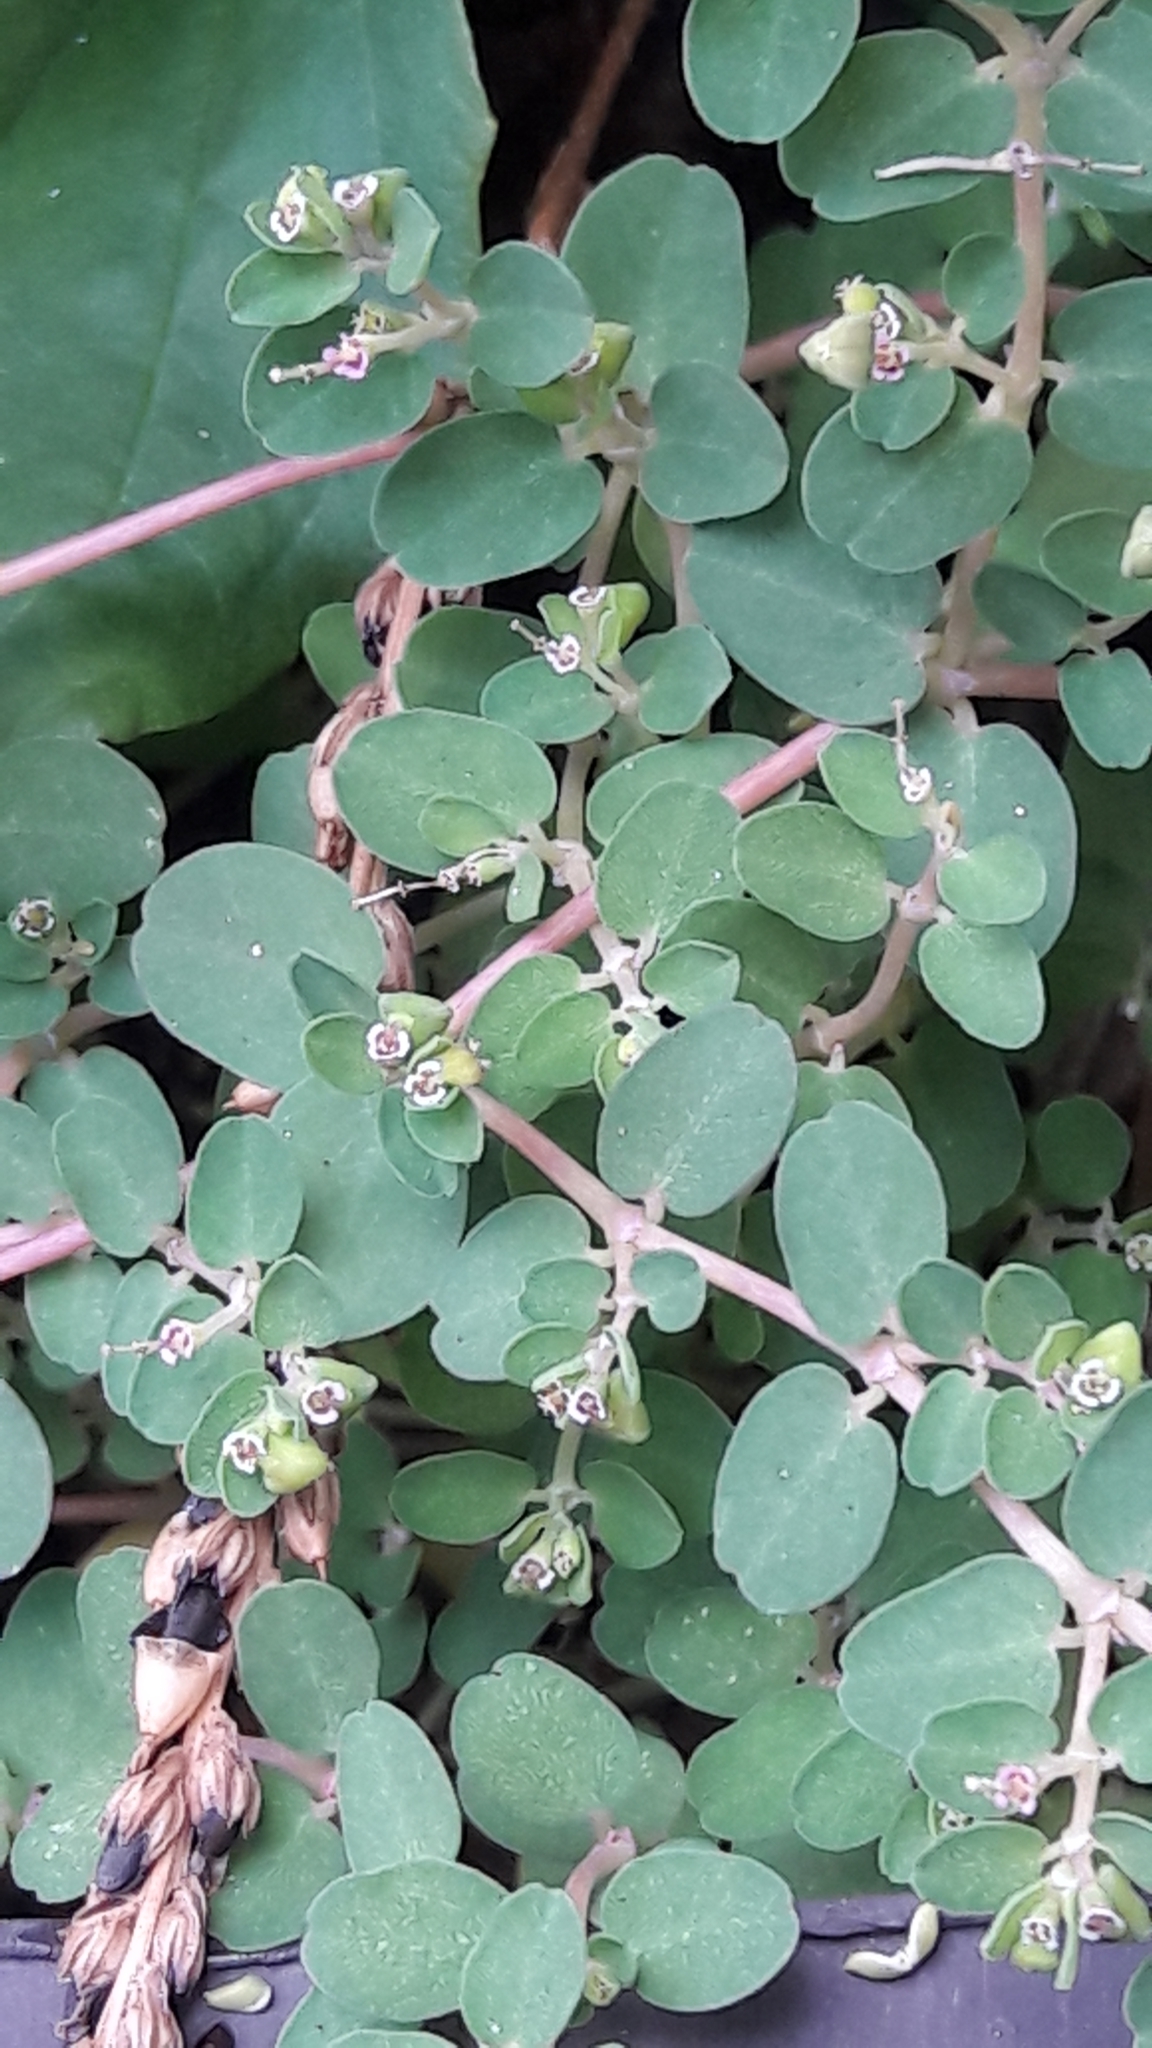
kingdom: Plantae
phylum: Tracheophyta
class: Magnoliopsida
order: Malpighiales
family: Euphorbiaceae
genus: Euphorbia
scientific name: Euphorbia serpens
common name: Matted sandmat
